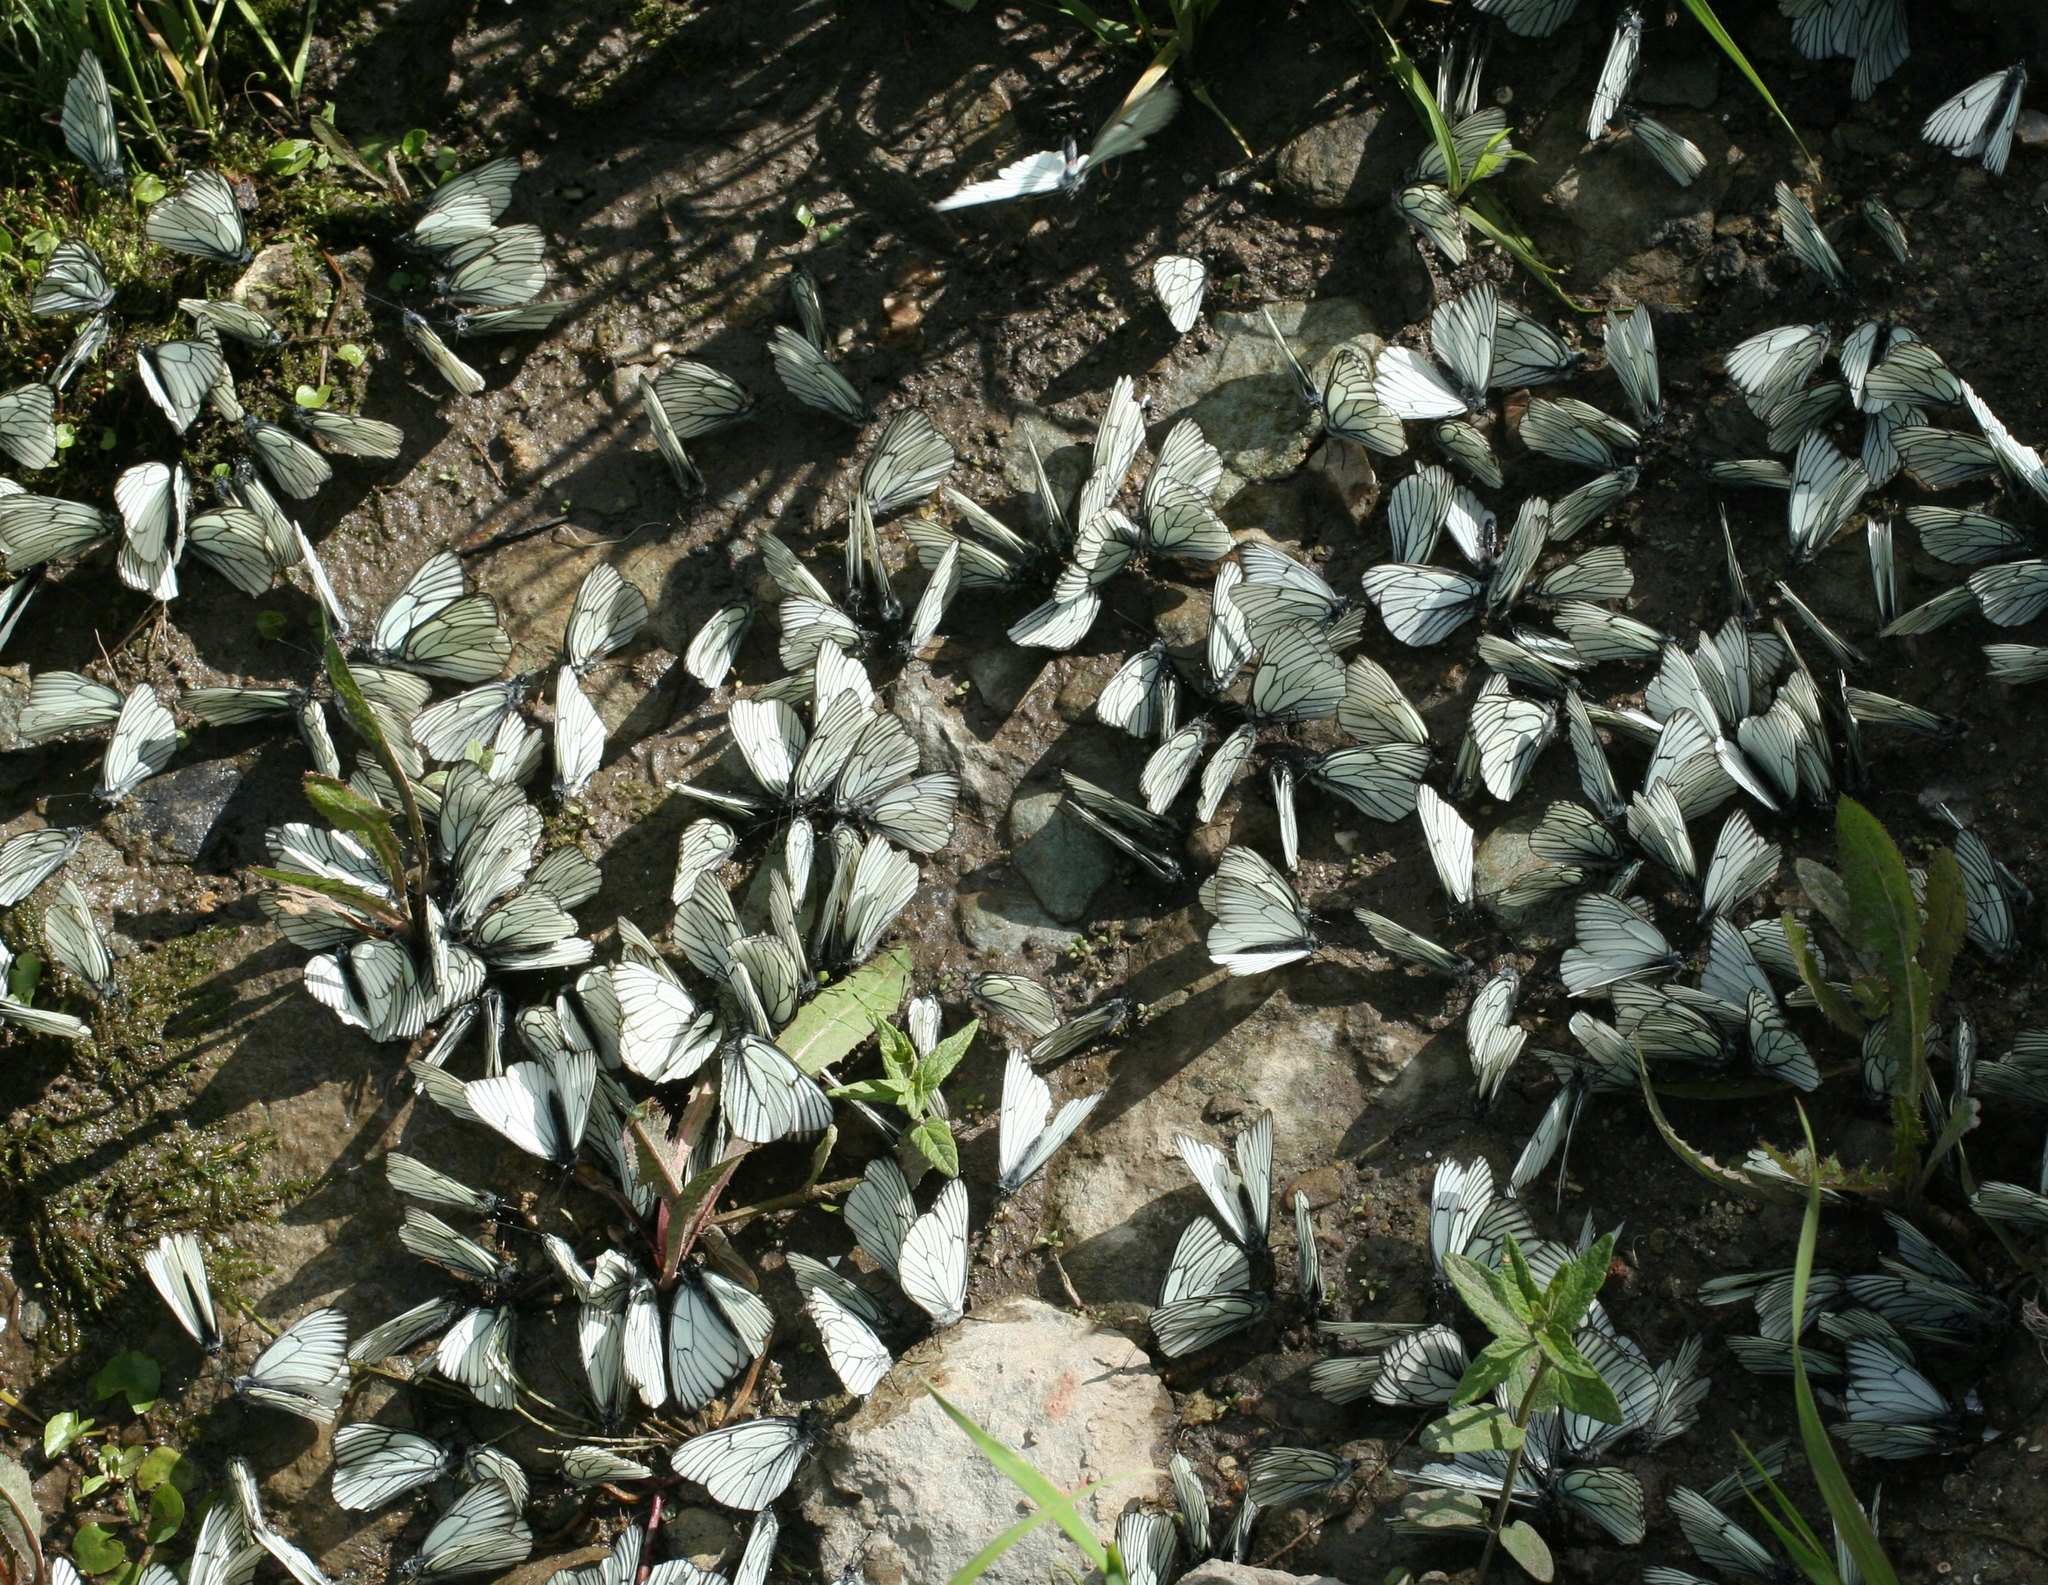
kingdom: Animalia
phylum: Arthropoda
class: Insecta
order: Lepidoptera
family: Pieridae
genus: Aporia
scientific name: Aporia crataegi
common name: Black-veined white
